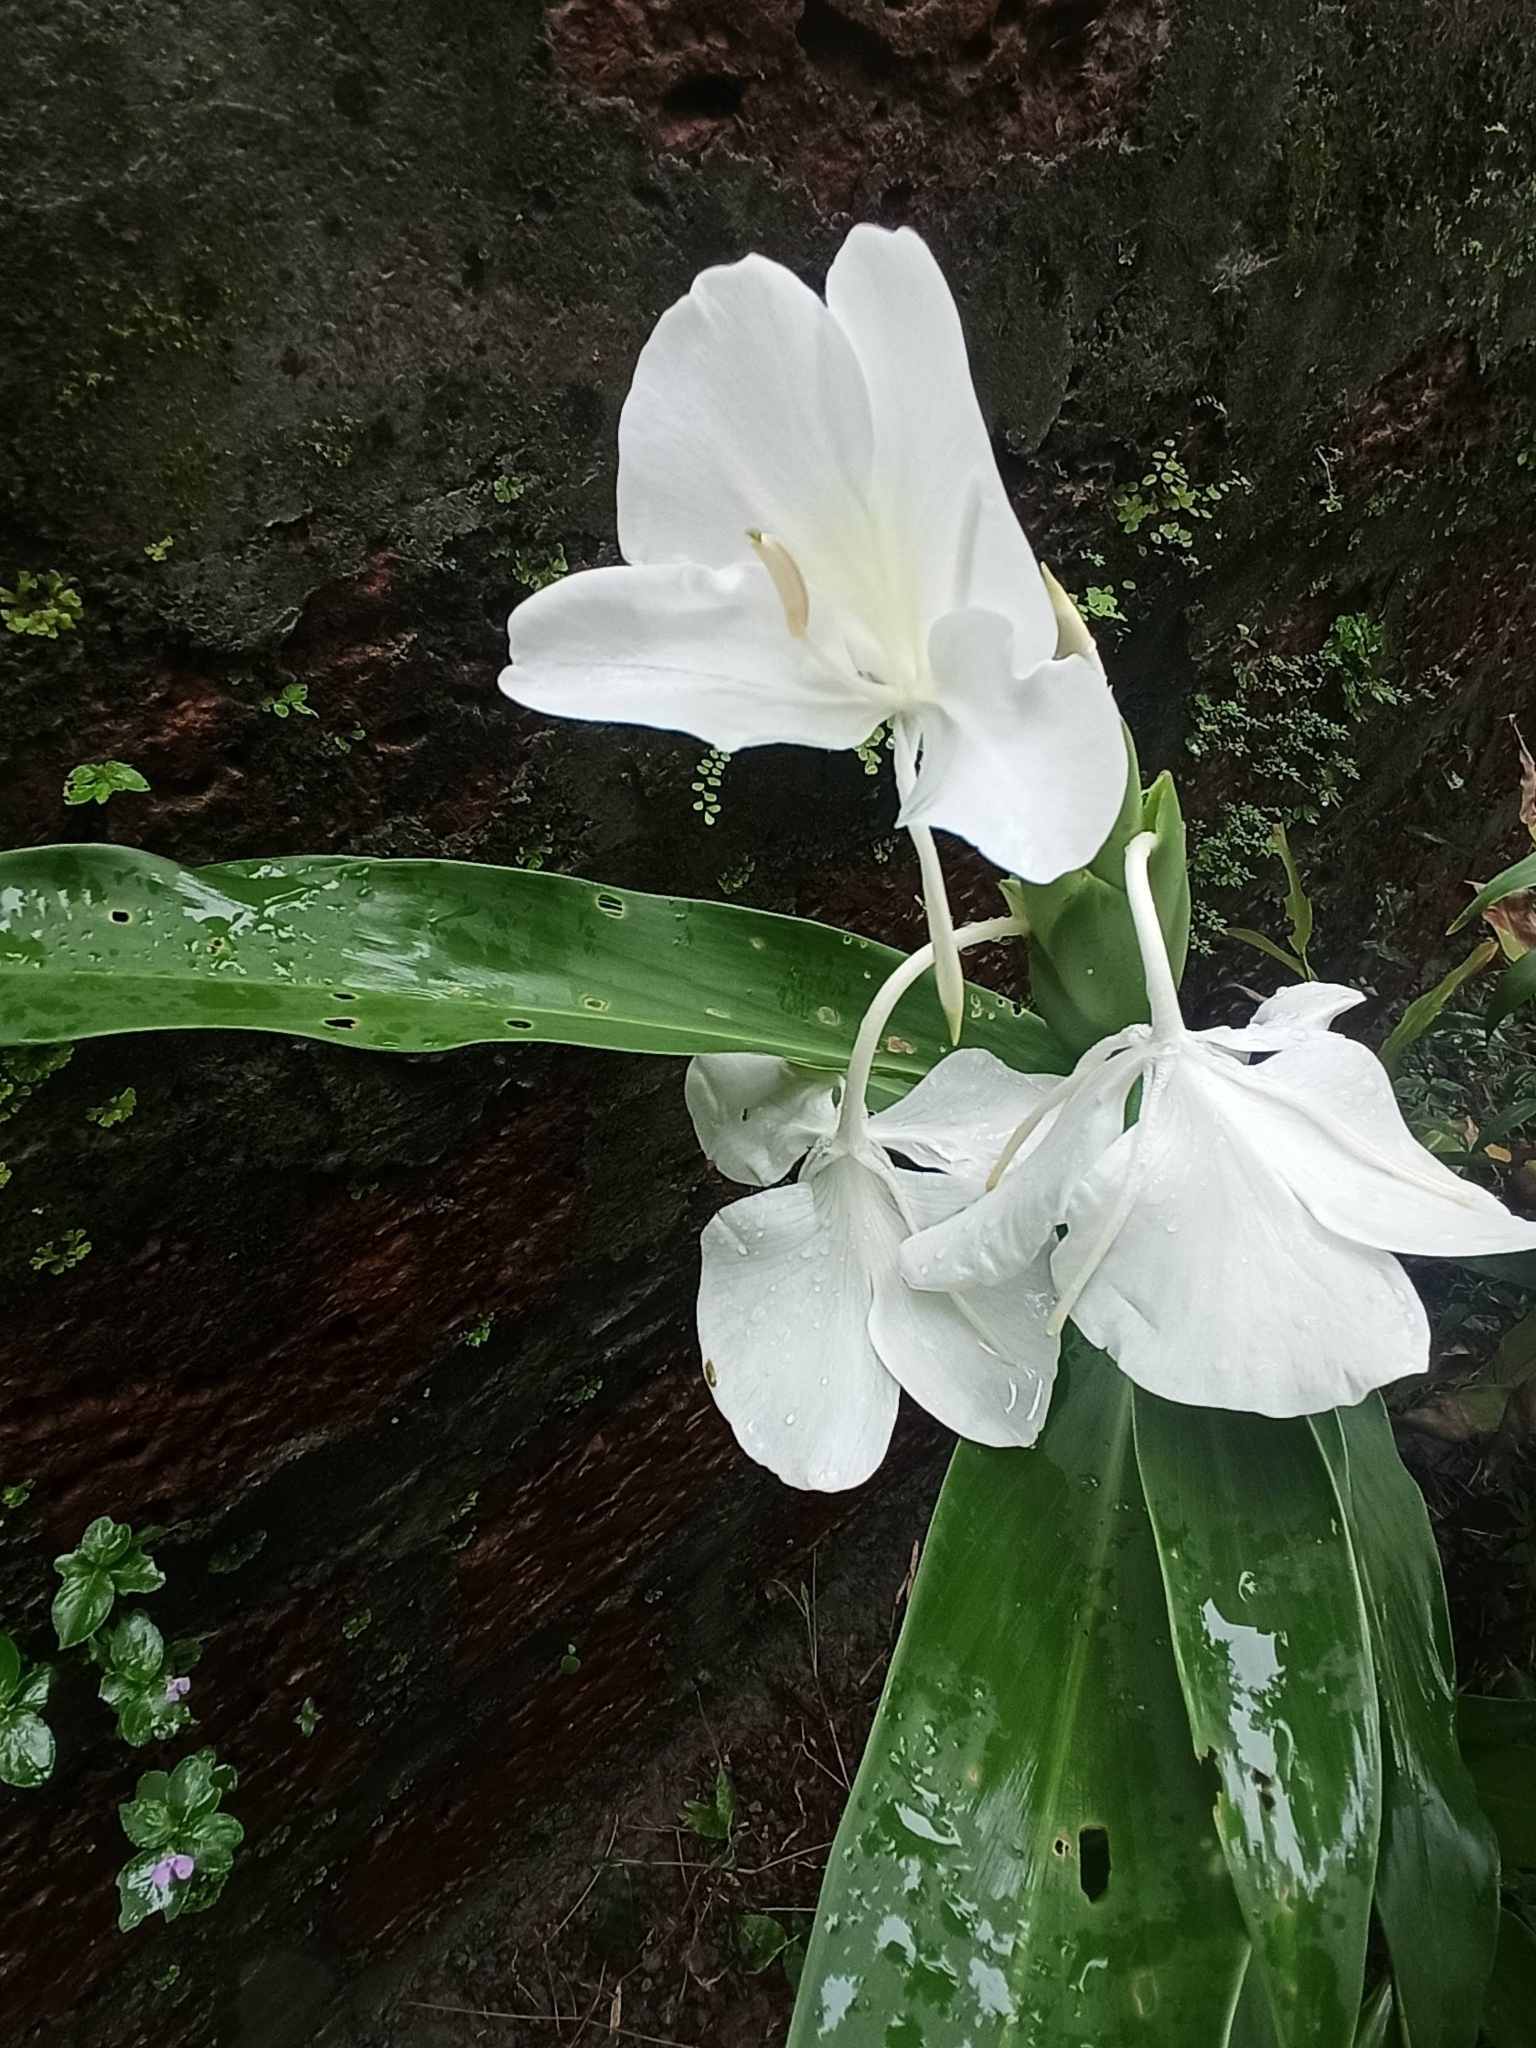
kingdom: Plantae
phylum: Tracheophyta
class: Liliopsida
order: Zingiberales
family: Zingiberaceae
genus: Hedychium
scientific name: Hedychium coronarium
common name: White garland-lily
